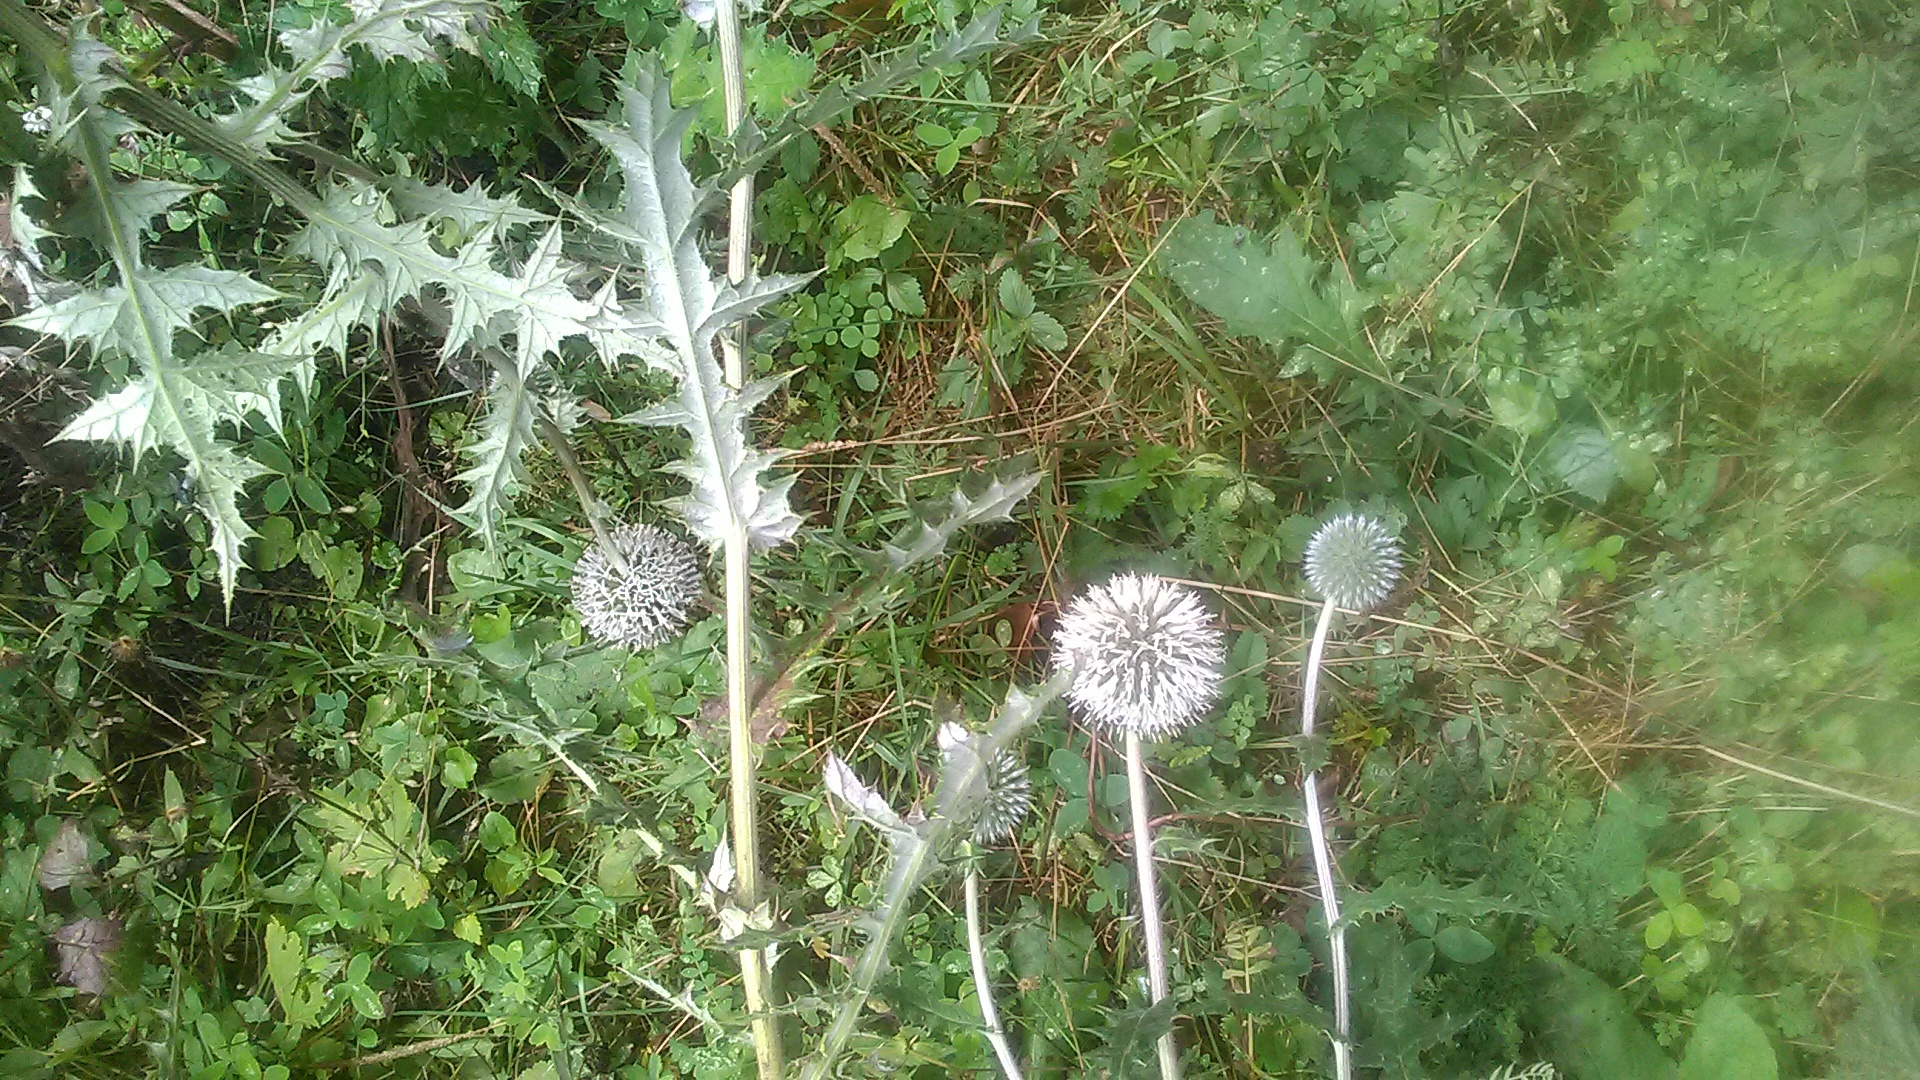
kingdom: Plantae
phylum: Tracheophyta
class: Magnoliopsida
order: Asterales
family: Asteraceae
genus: Echinops
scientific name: Echinops sphaerocephalus
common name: Glandular globe-thistle
